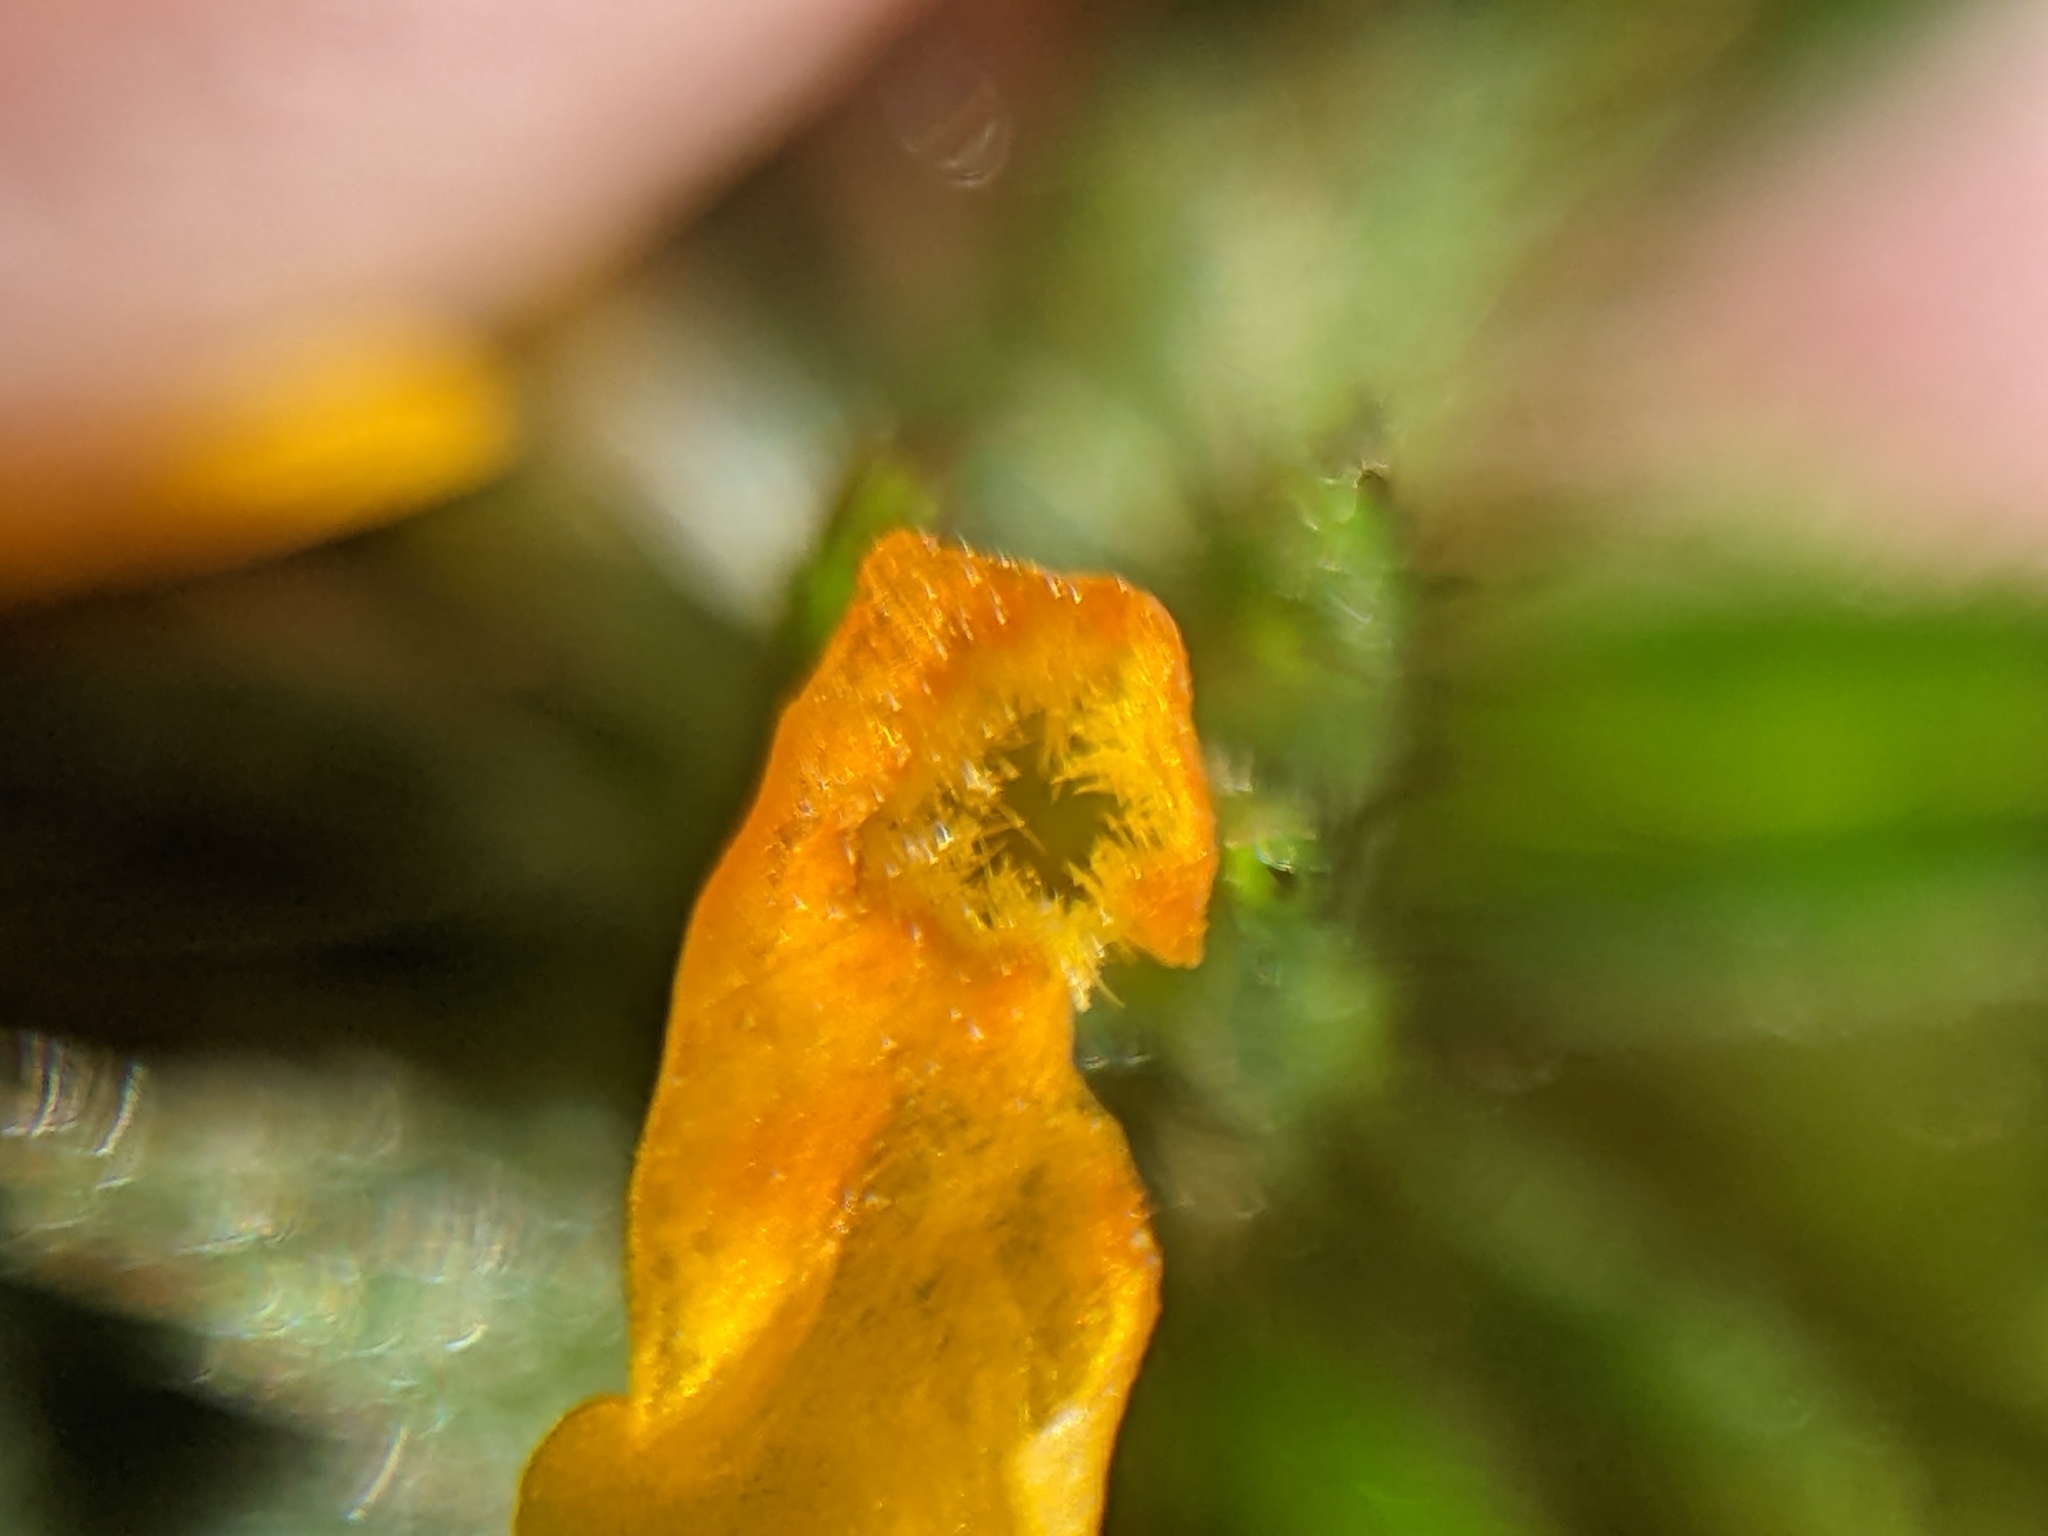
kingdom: Plantae
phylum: Tracheophyta
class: Magnoliopsida
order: Boraginales
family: Boraginaceae
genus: Amsinckia
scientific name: Amsinckia lycopsoides
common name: Tarweed fiddleneck
